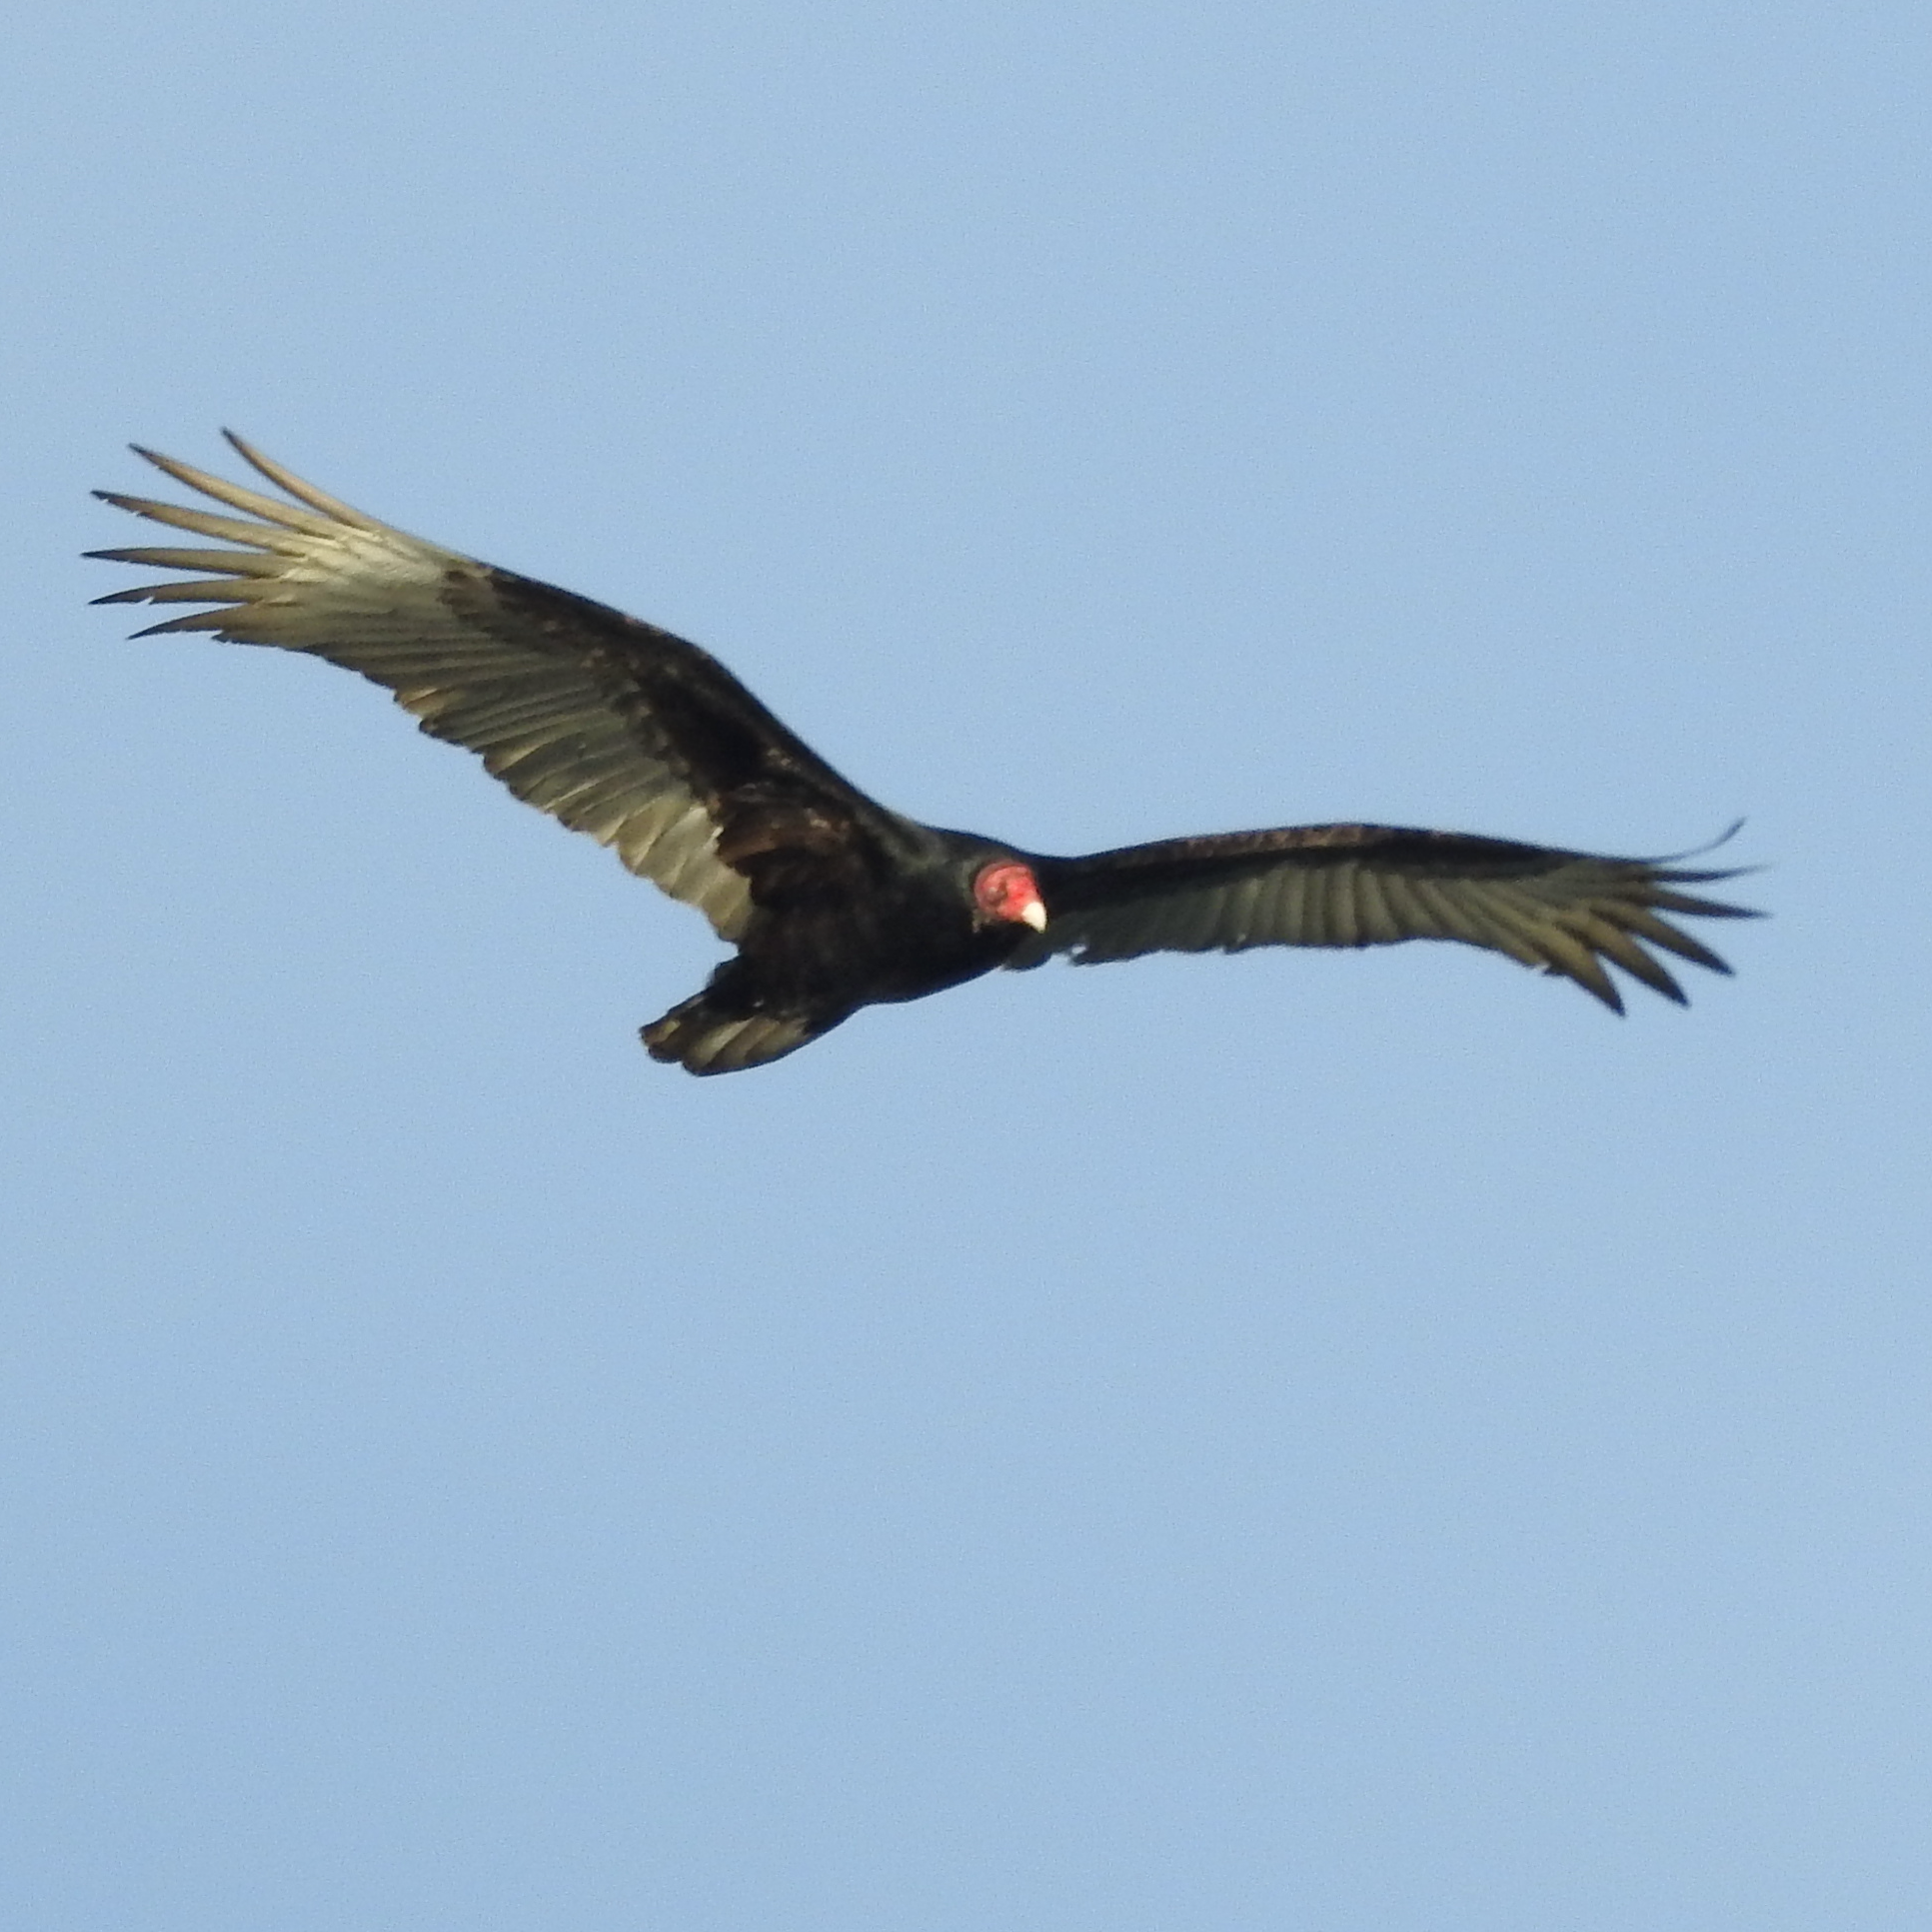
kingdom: Animalia
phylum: Chordata
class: Aves
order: Accipitriformes
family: Cathartidae
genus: Cathartes
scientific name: Cathartes aura
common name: Turkey vulture
